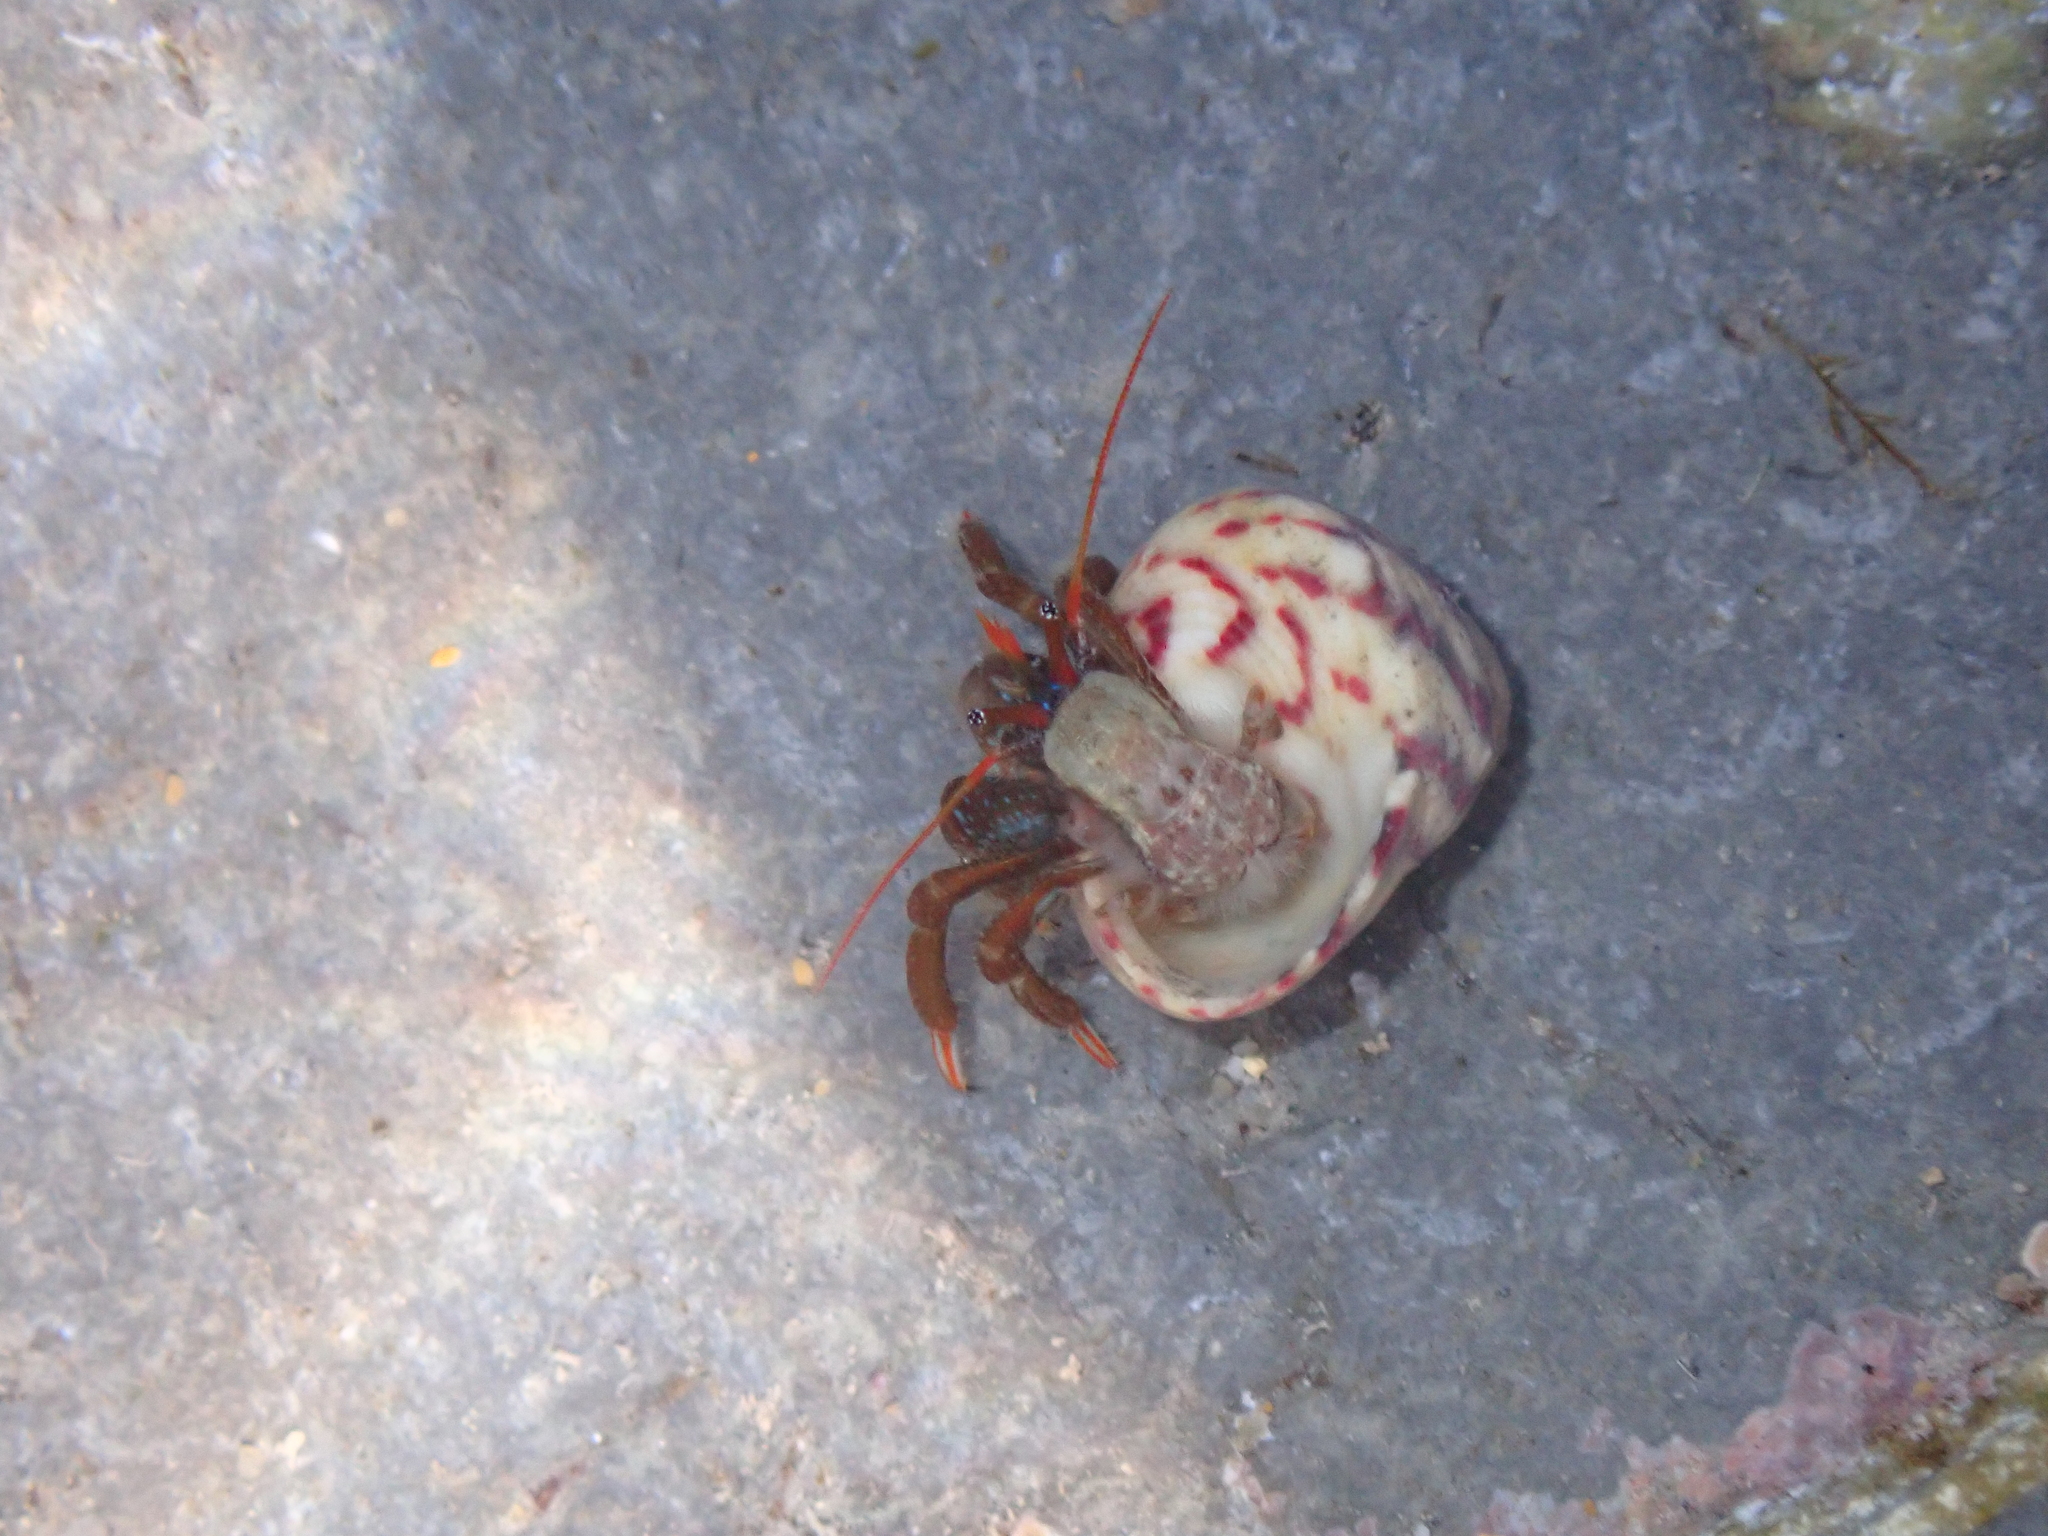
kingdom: Animalia
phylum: Arthropoda
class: Malacostraca
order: Decapoda
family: Diogenidae
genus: Clibanarius
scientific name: Clibanarius erythropus
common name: Hermit crab
